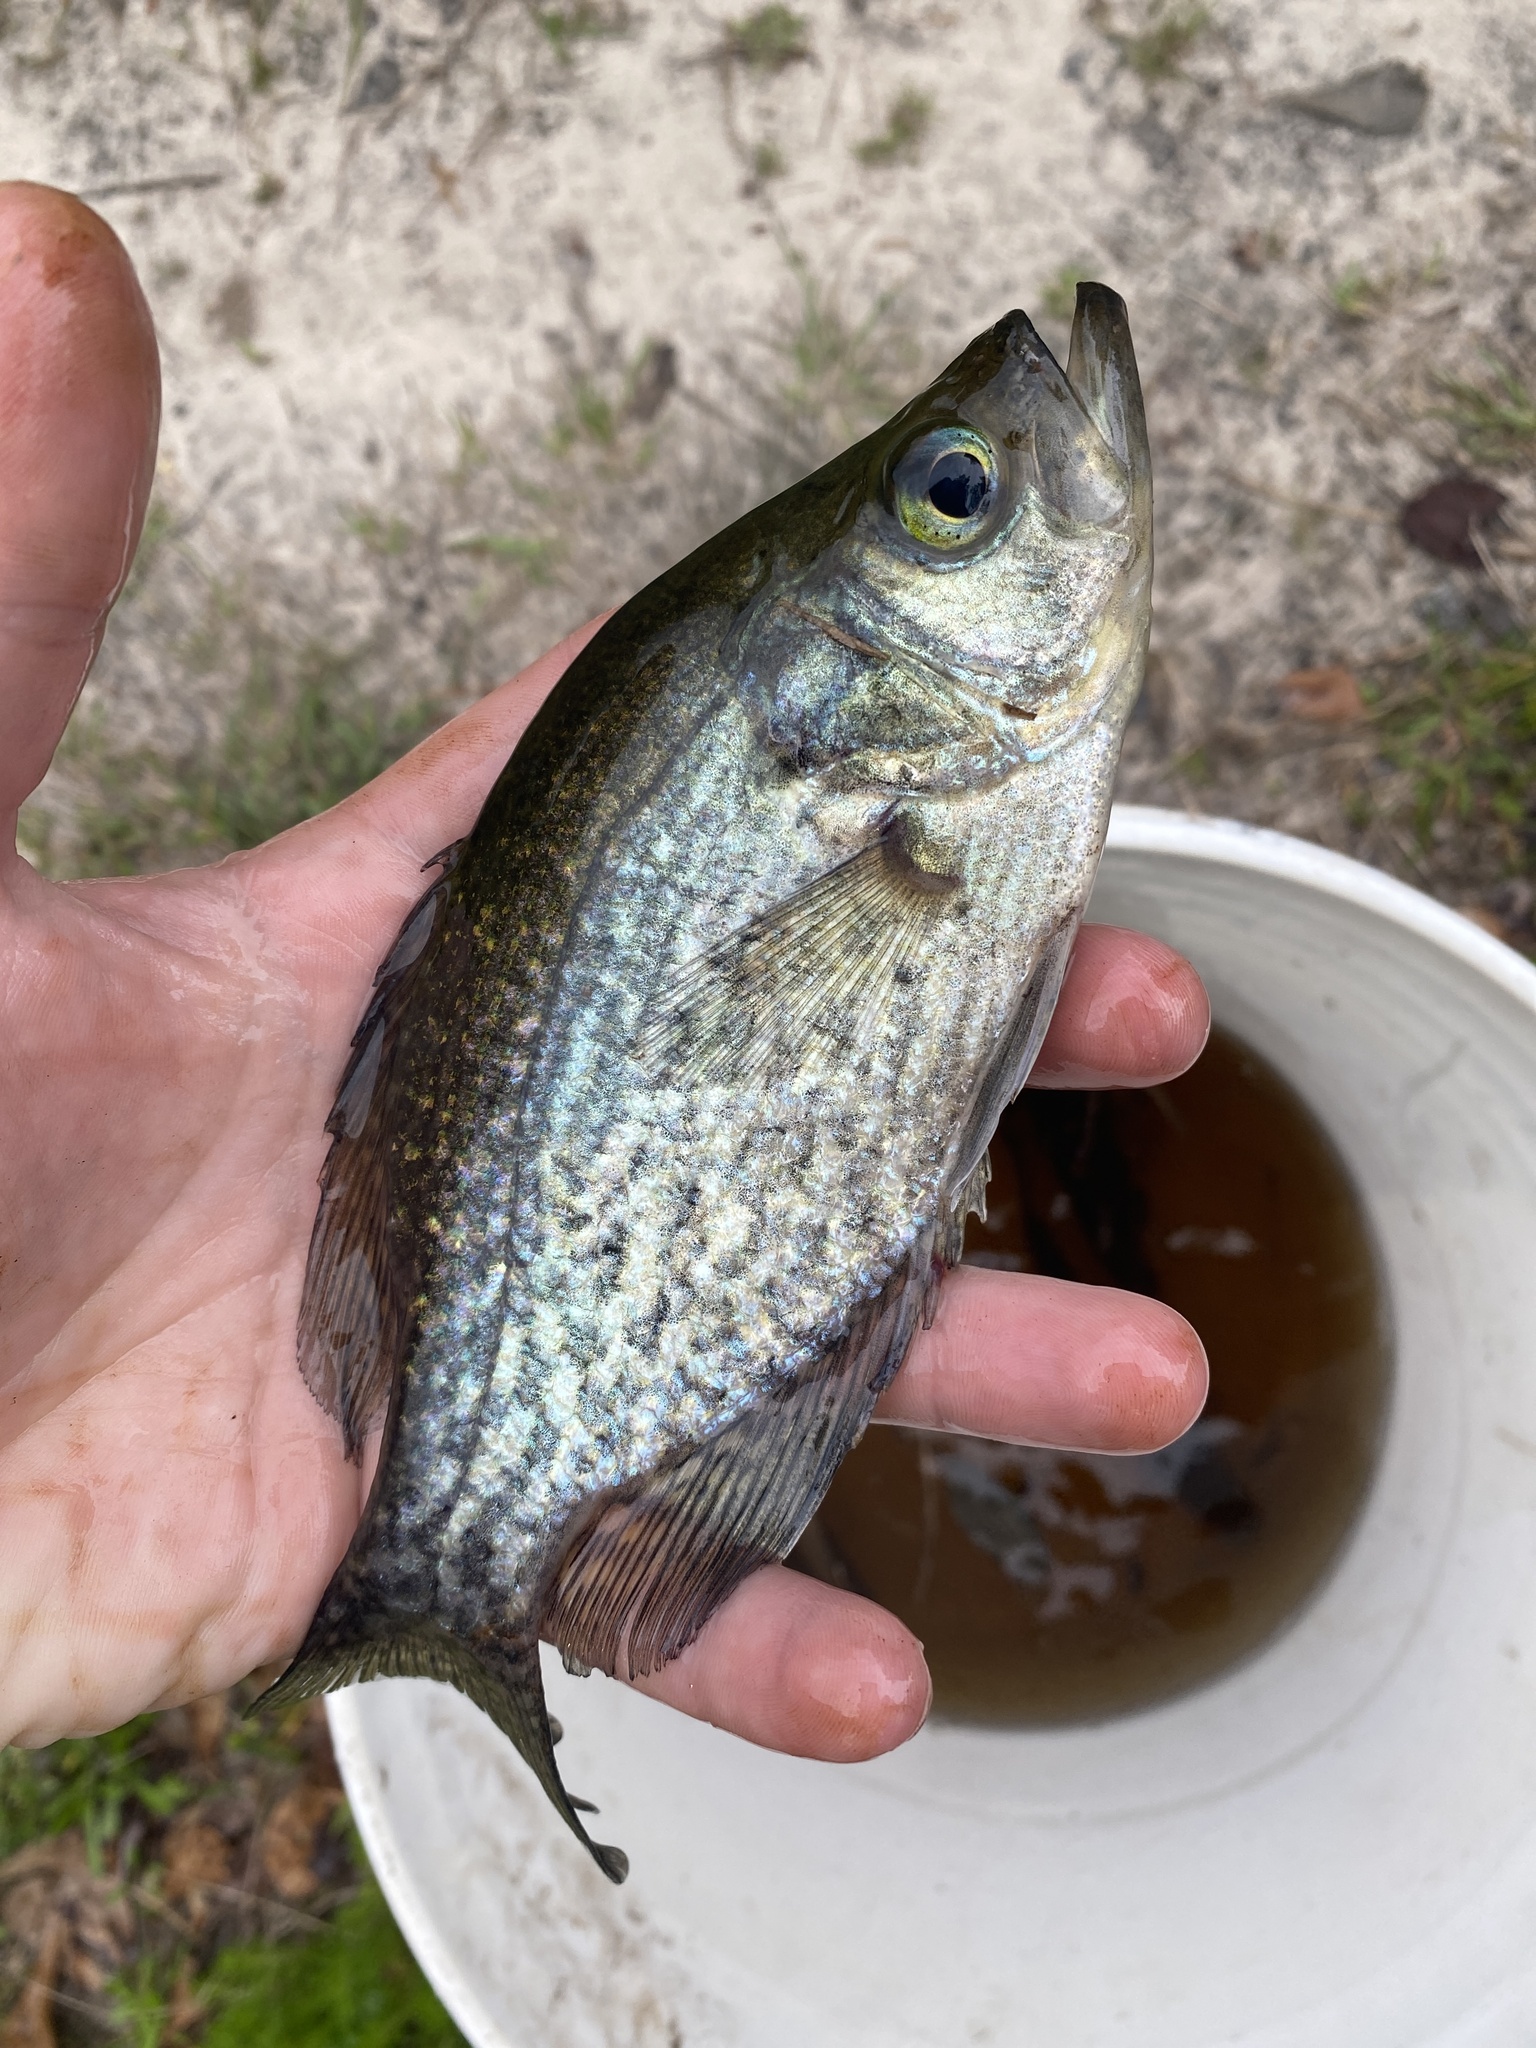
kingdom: Animalia
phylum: Chordata
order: Perciformes
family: Centrarchidae
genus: Pomoxis
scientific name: Pomoxis nigromaculatus
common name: Black crappie
